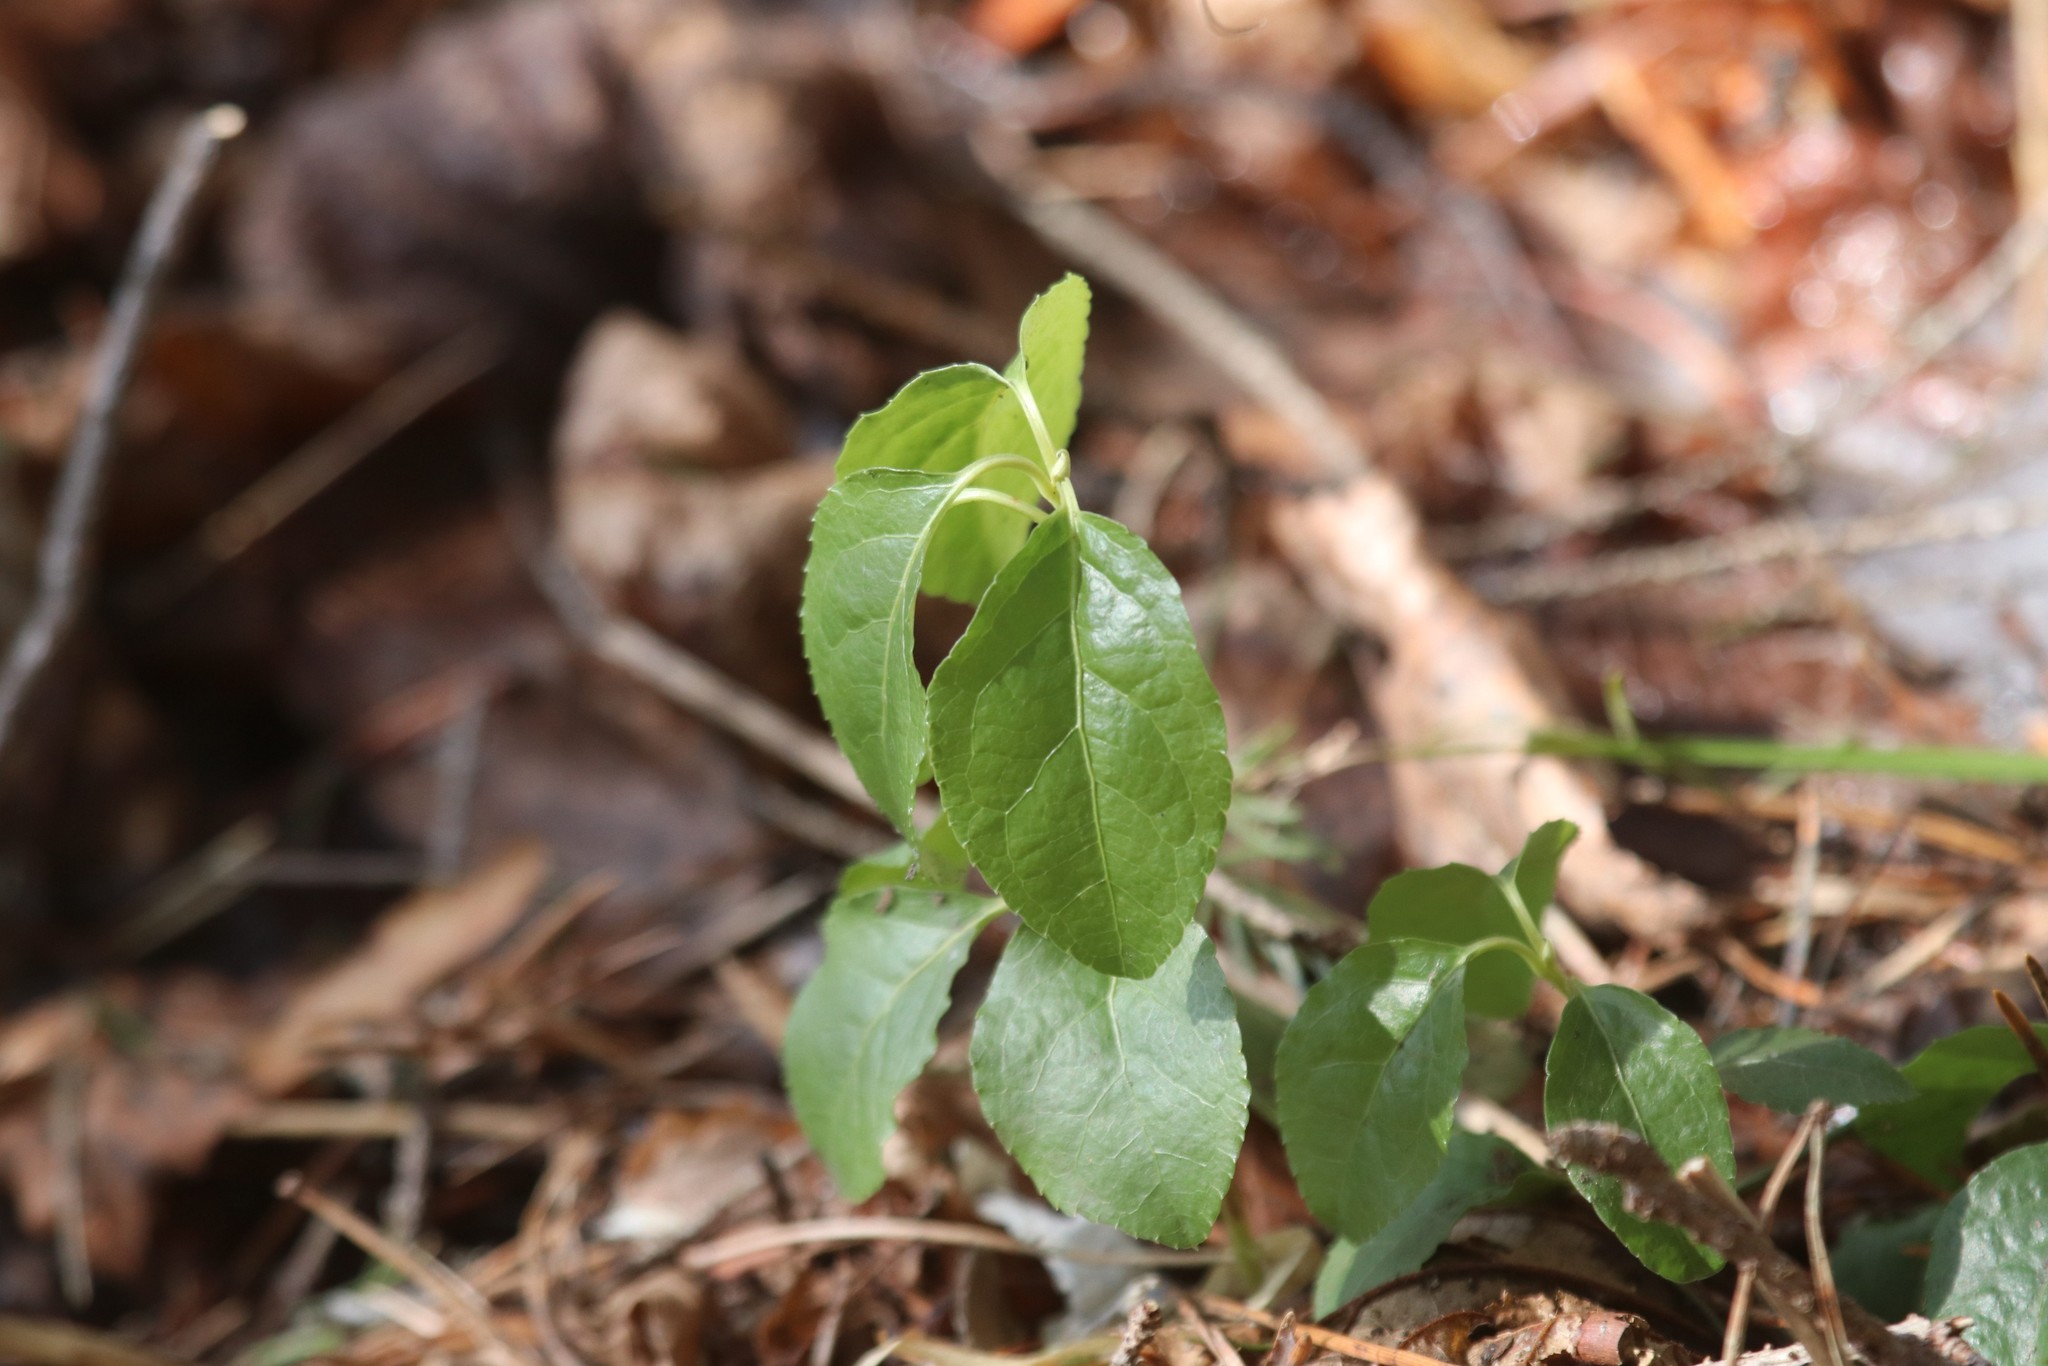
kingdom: Plantae
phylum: Tracheophyta
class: Magnoliopsida
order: Ericales
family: Ericaceae
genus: Orthilia
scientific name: Orthilia secunda
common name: One-sided orthilia
